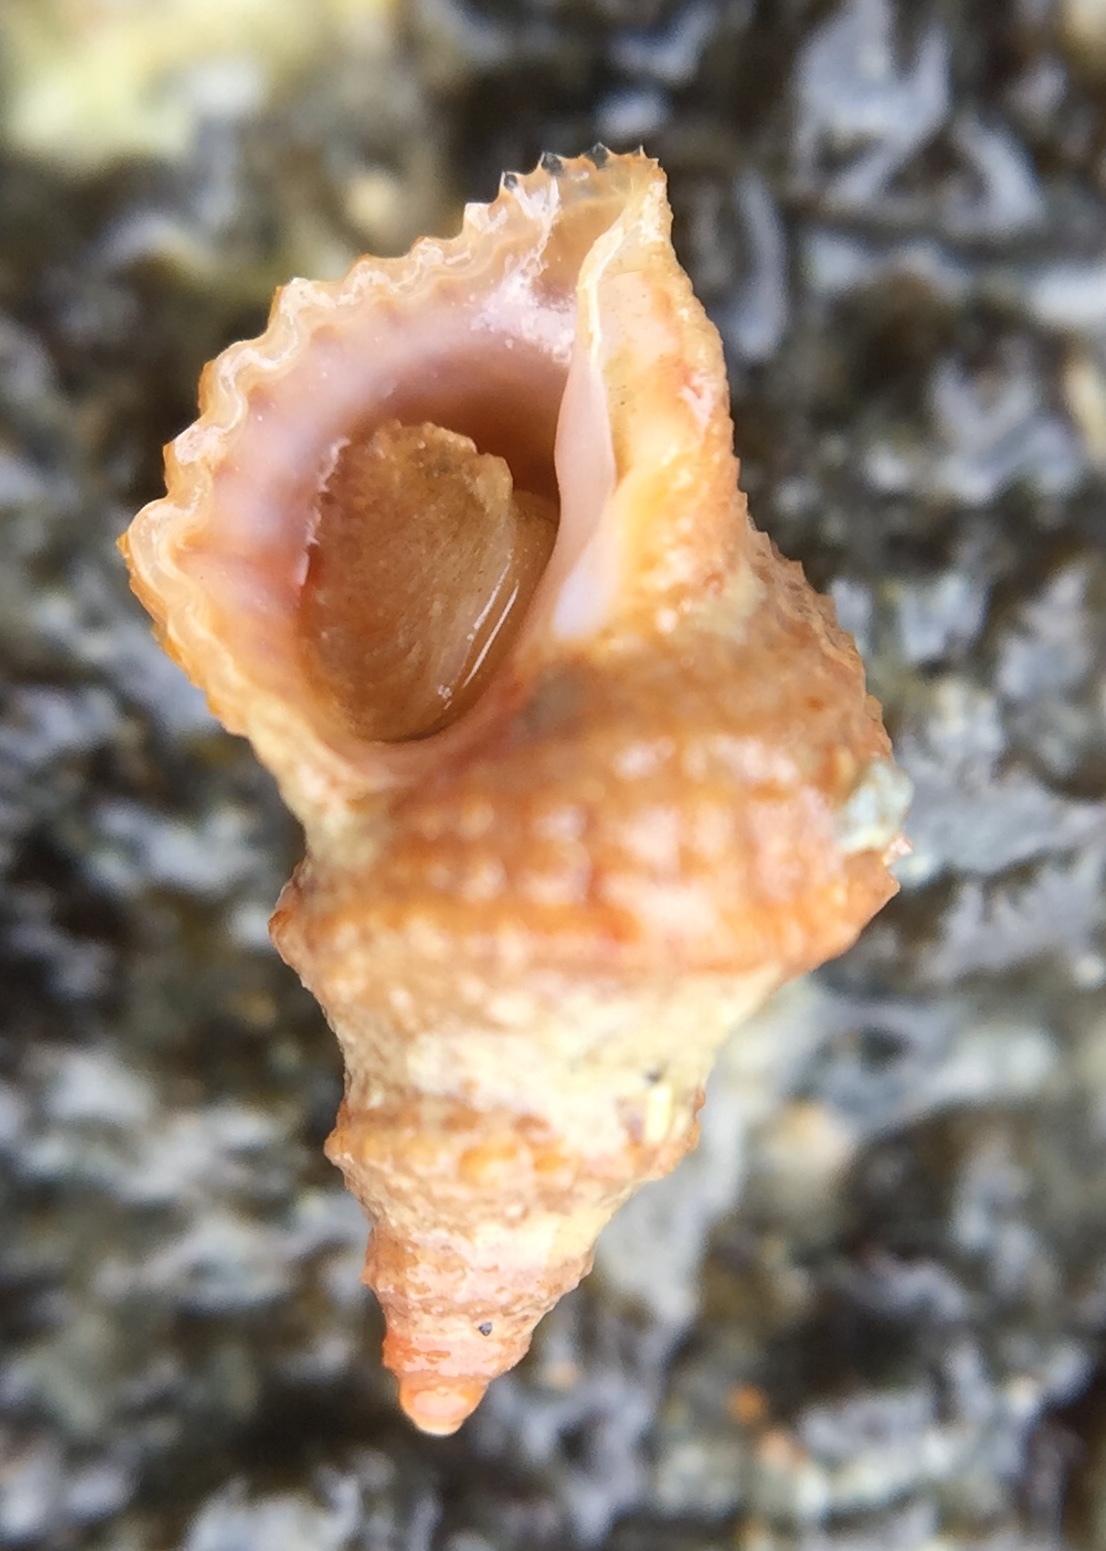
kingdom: Animalia
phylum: Mollusca
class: Gastropoda
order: Littorinimorpha
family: Capulidae
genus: Trichosirius
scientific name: Trichosirius inornatus
